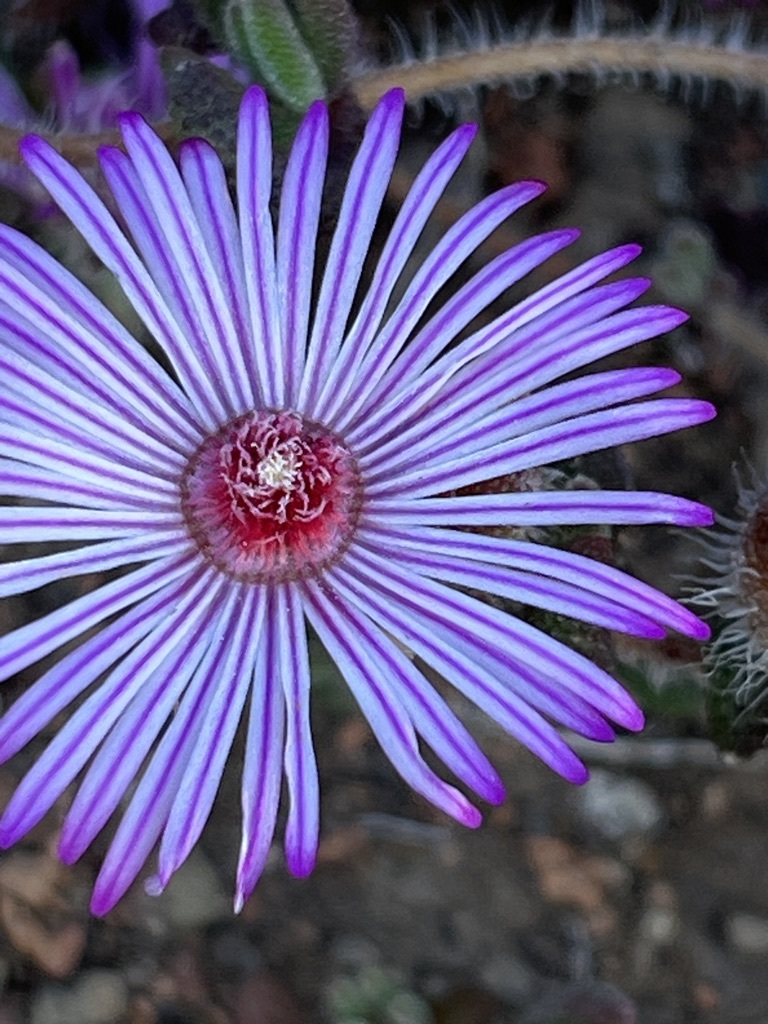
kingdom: Plantae
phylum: Tracheophyta
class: Magnoliopsida
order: Caryophyllales
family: Aizoaceae
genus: Drosanthemum
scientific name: Drosanthemum striatum
